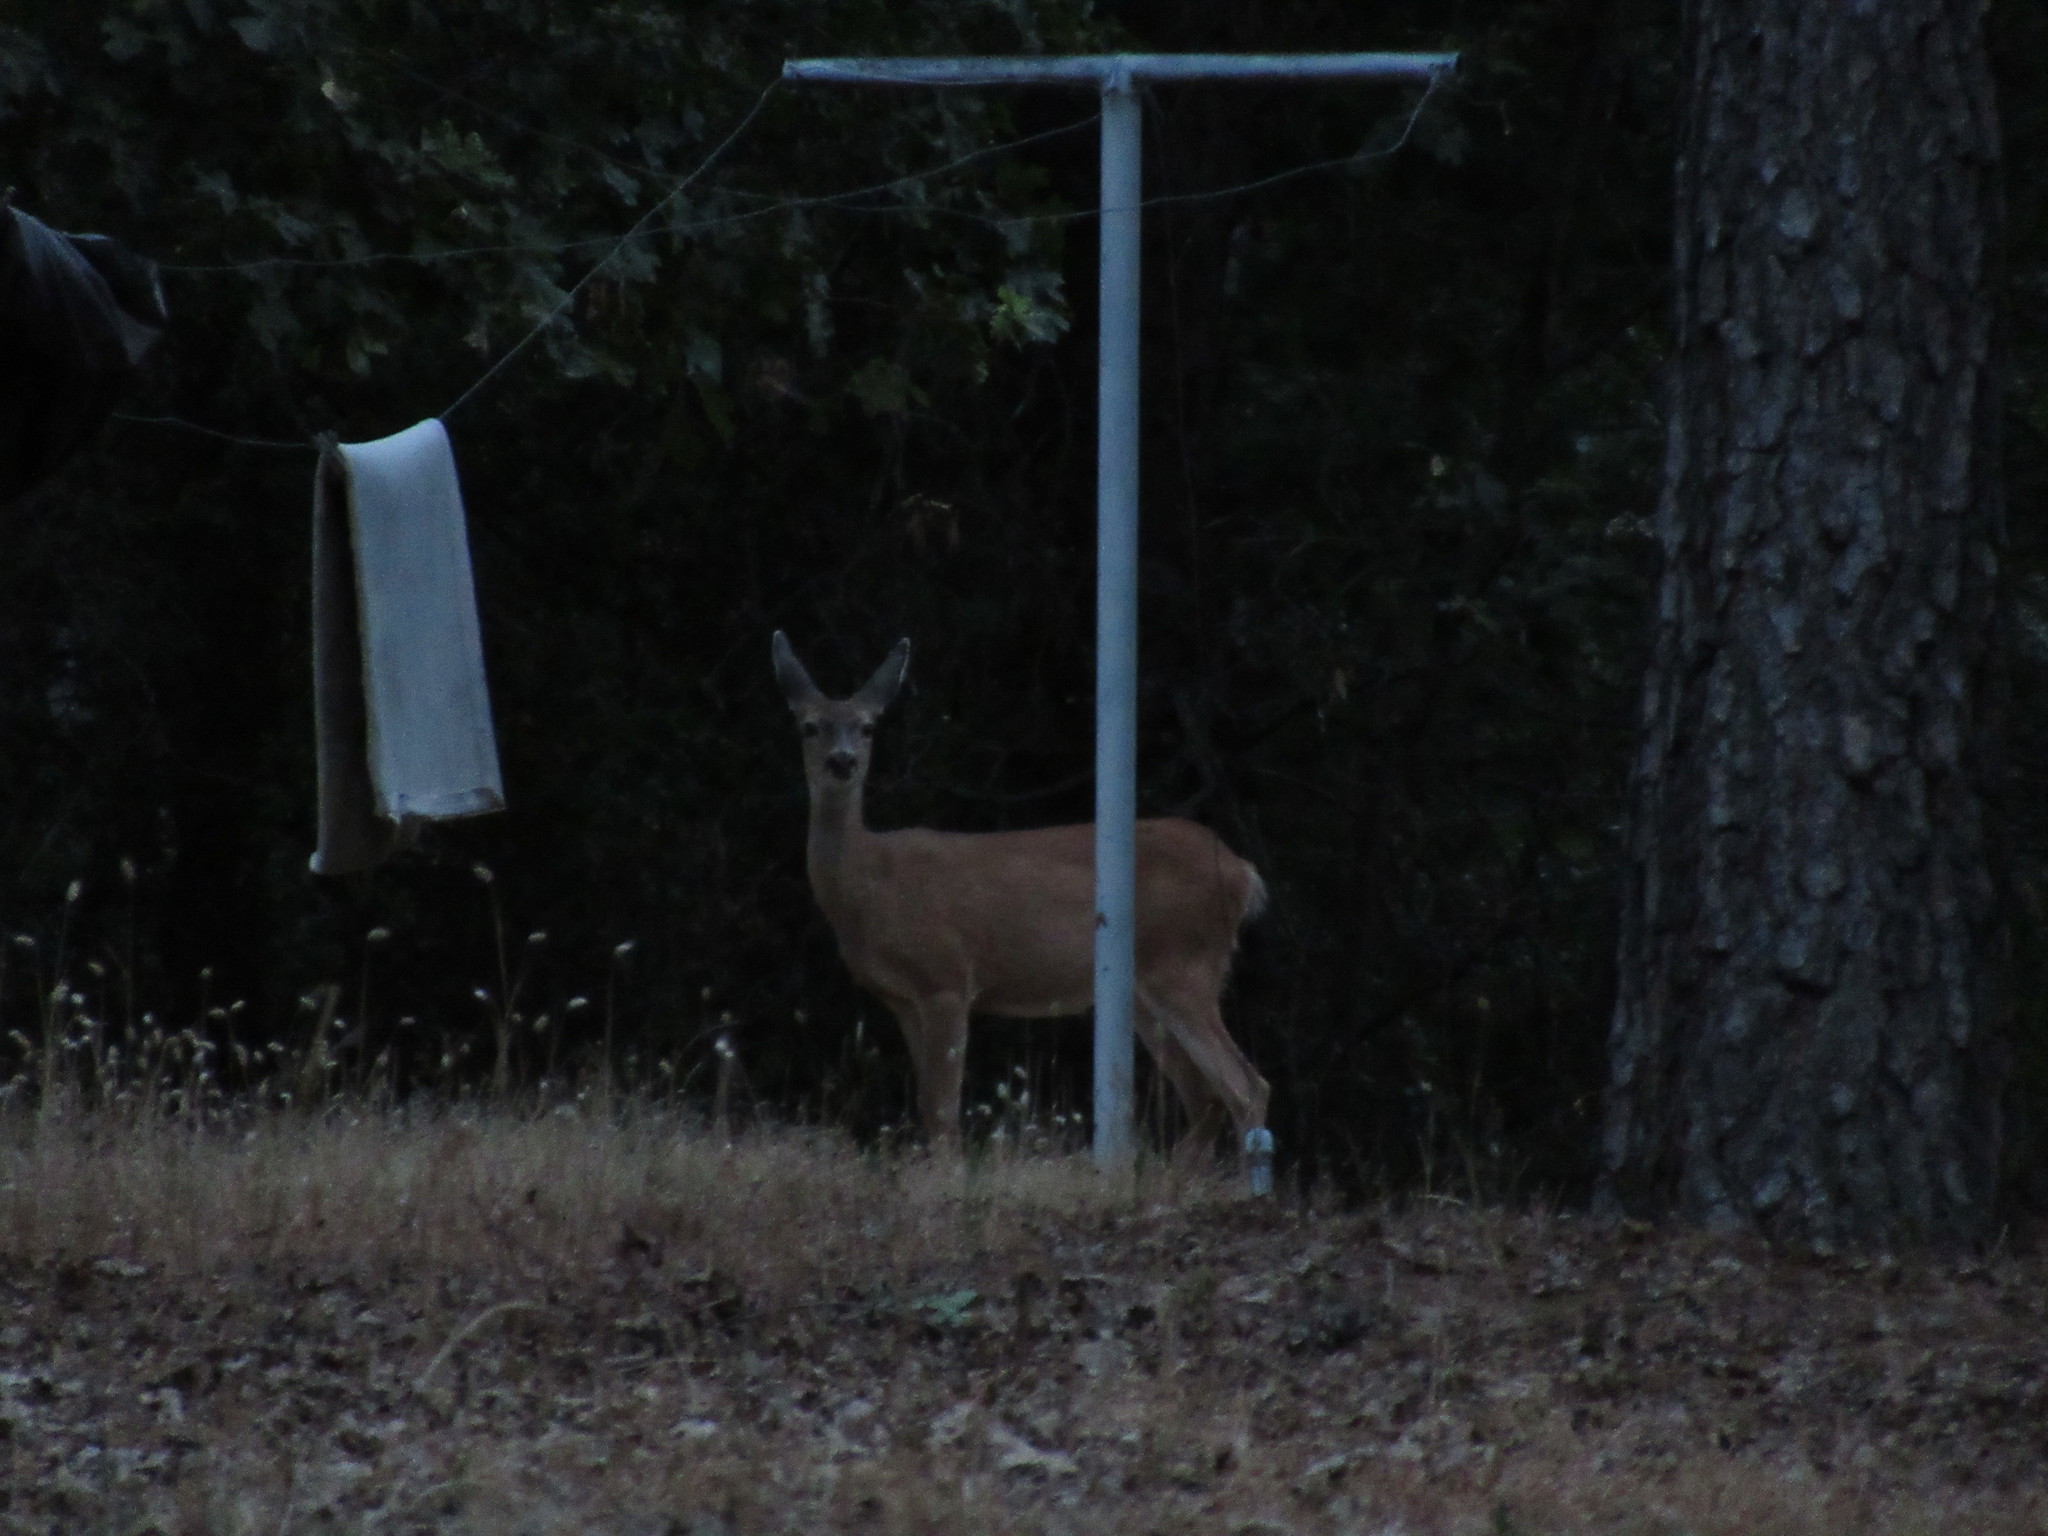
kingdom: Animalia
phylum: Chordata
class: Mammalia
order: Artiodactyla
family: Cervidae
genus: Odocoileus
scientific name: Odocoileus hemionus
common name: Mule deer
